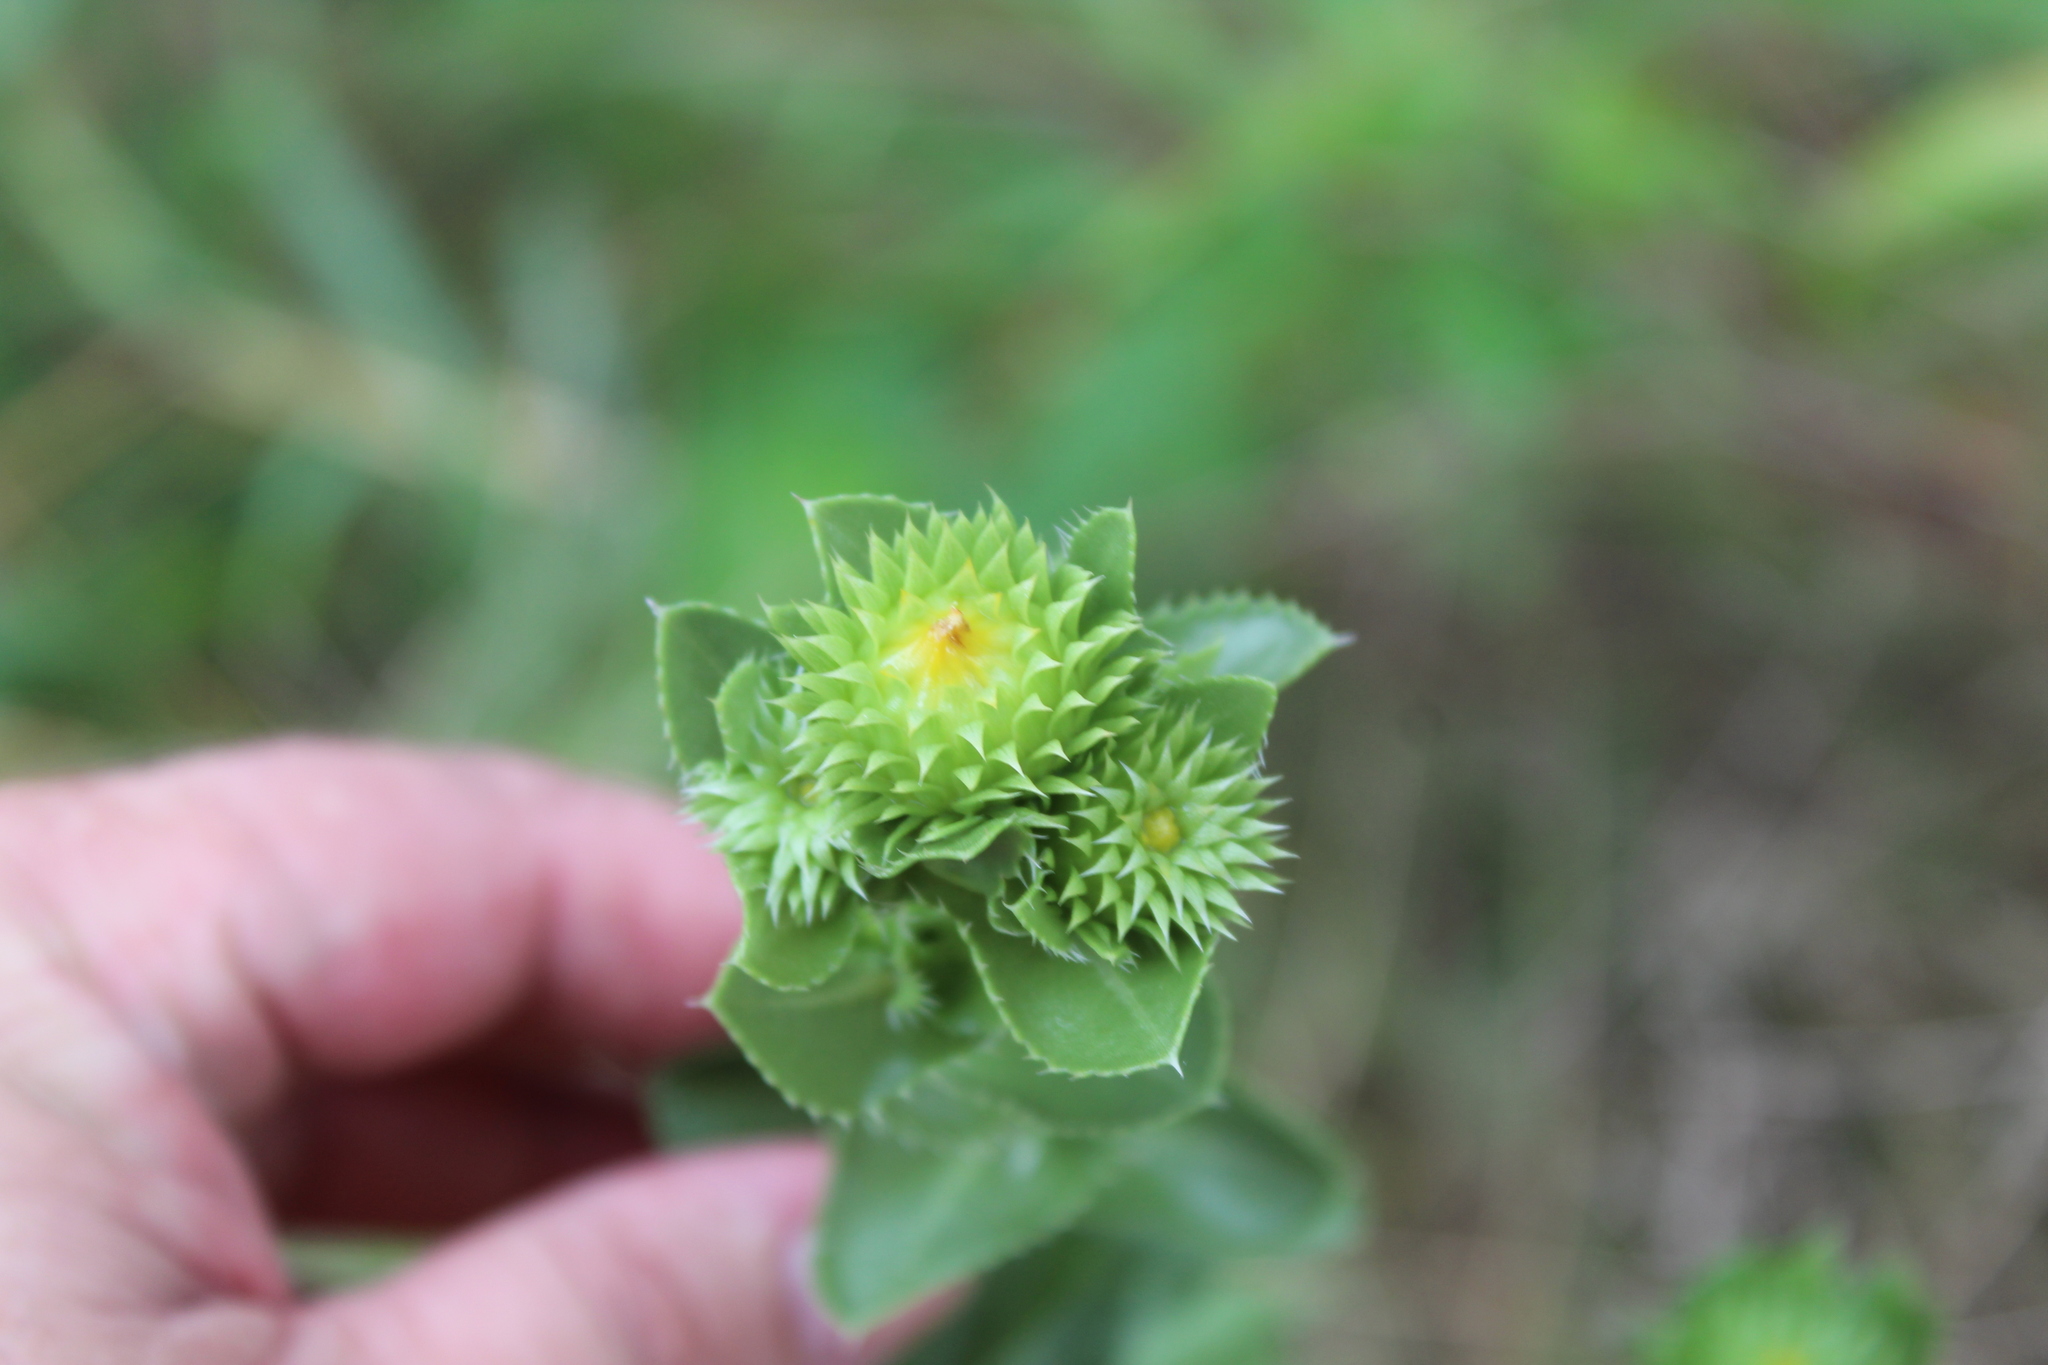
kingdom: Plantae
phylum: Tracheophyta
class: Magnoliopsida
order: Asterales
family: Asteraceae
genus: Grindelia
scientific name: Grindelia ciliata
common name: Goldenweed
